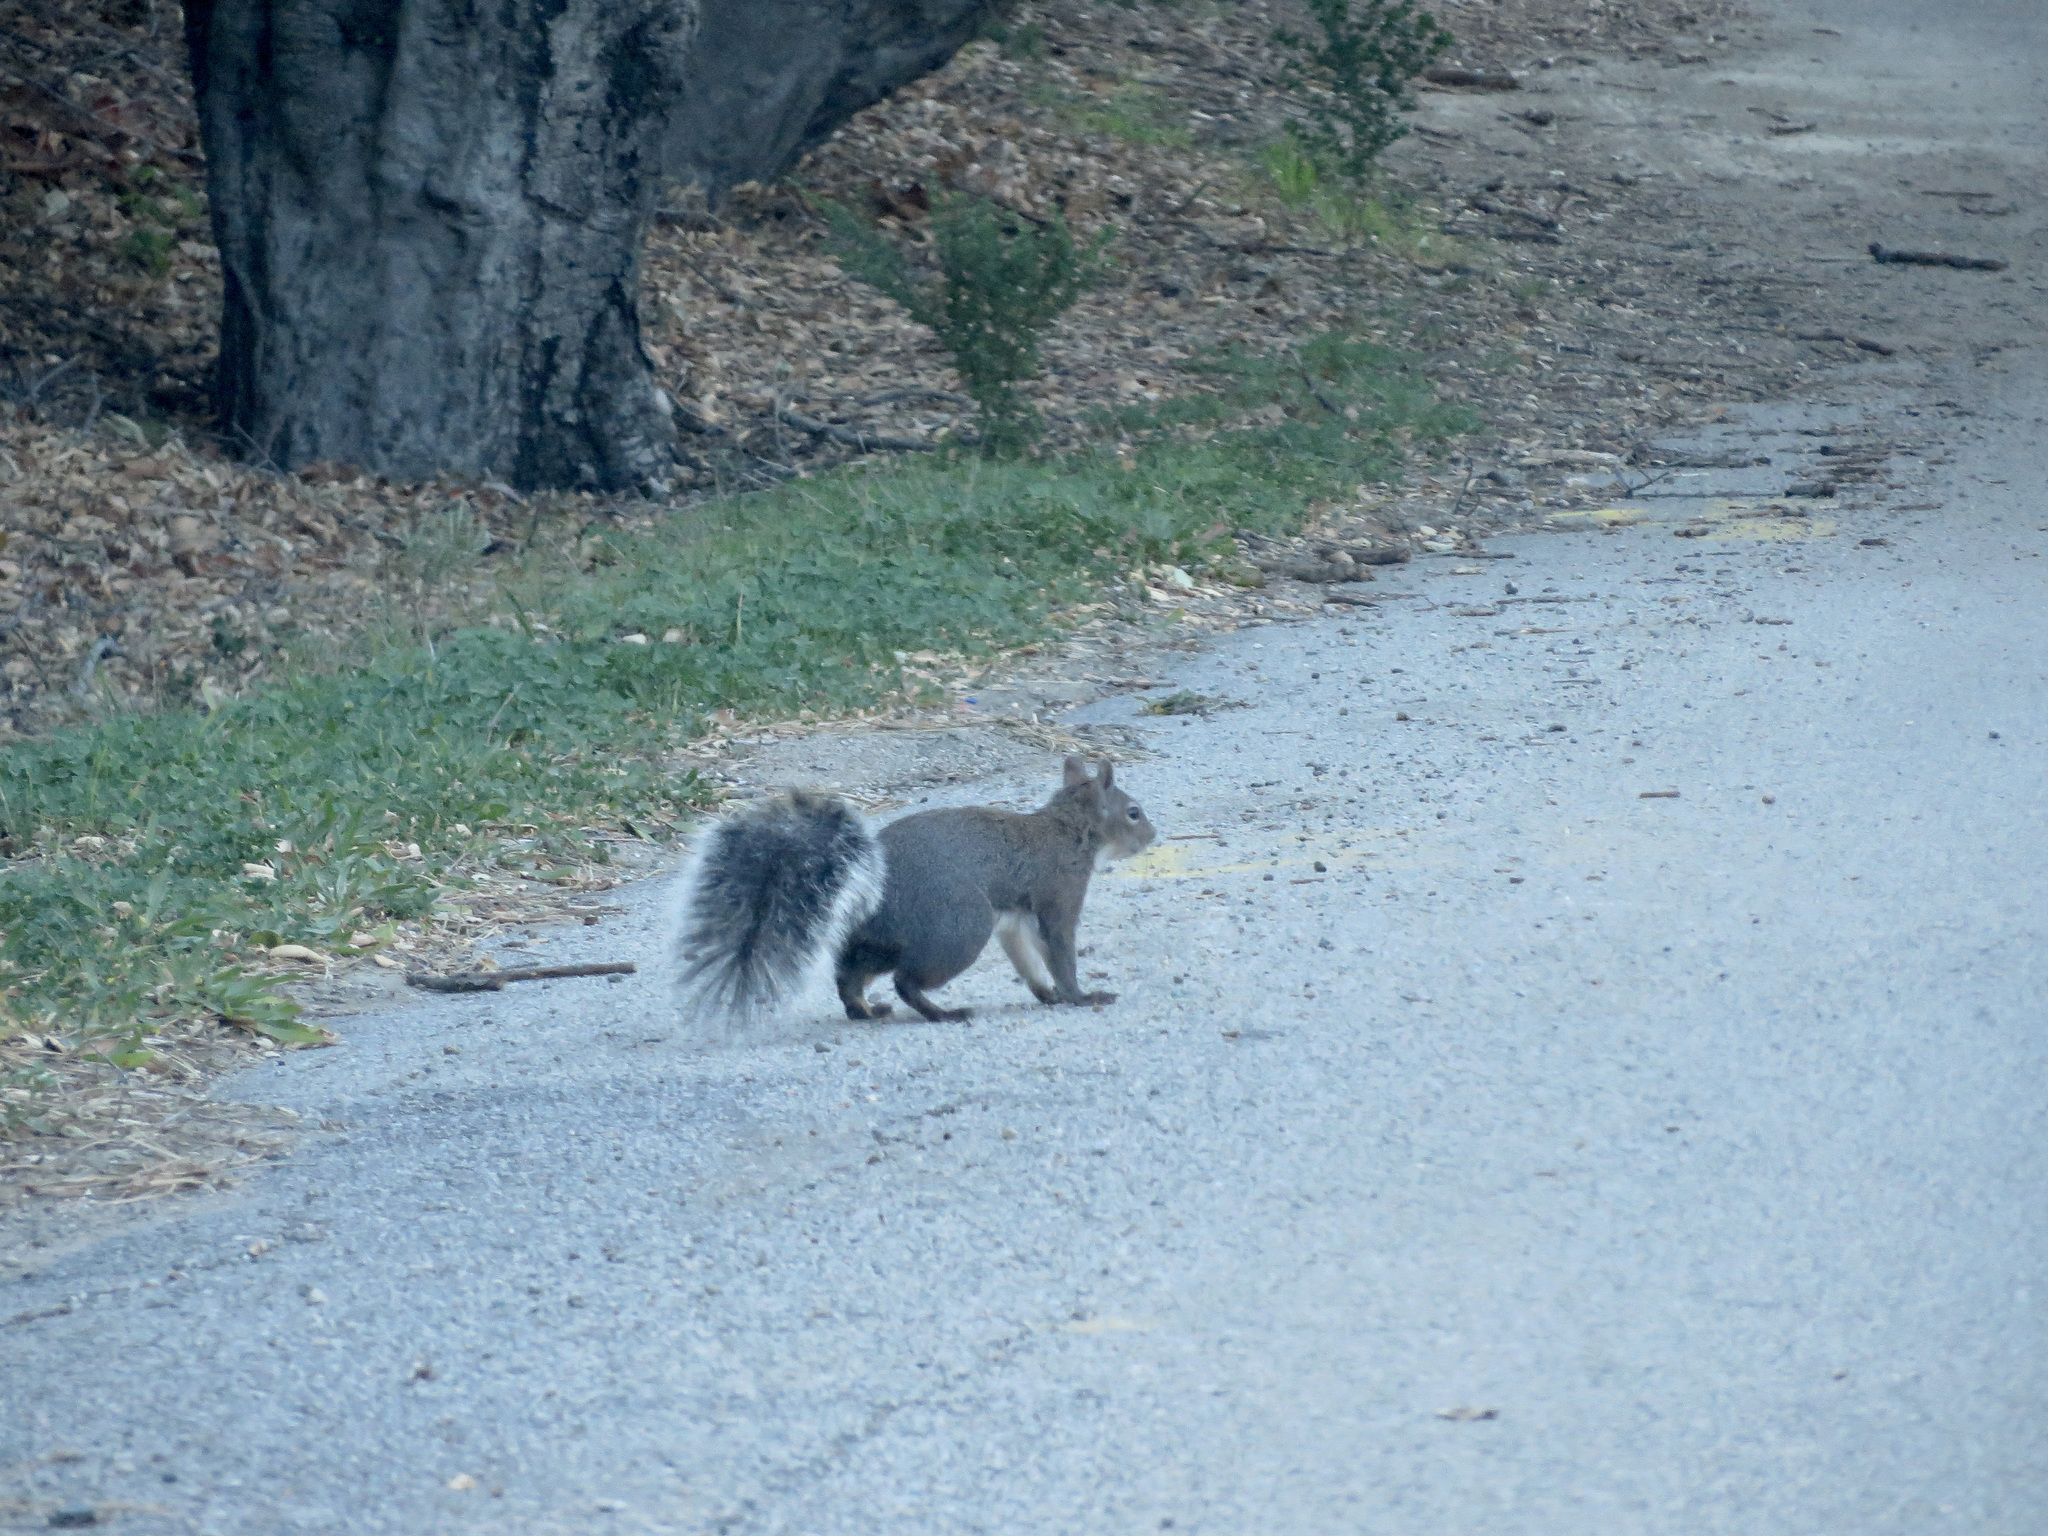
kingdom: Animalia
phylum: Chordata
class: Mammalia
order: Rodentia
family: Sciuridae
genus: Sciurus
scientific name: Sciurus griseus
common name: Western gray squirrel
